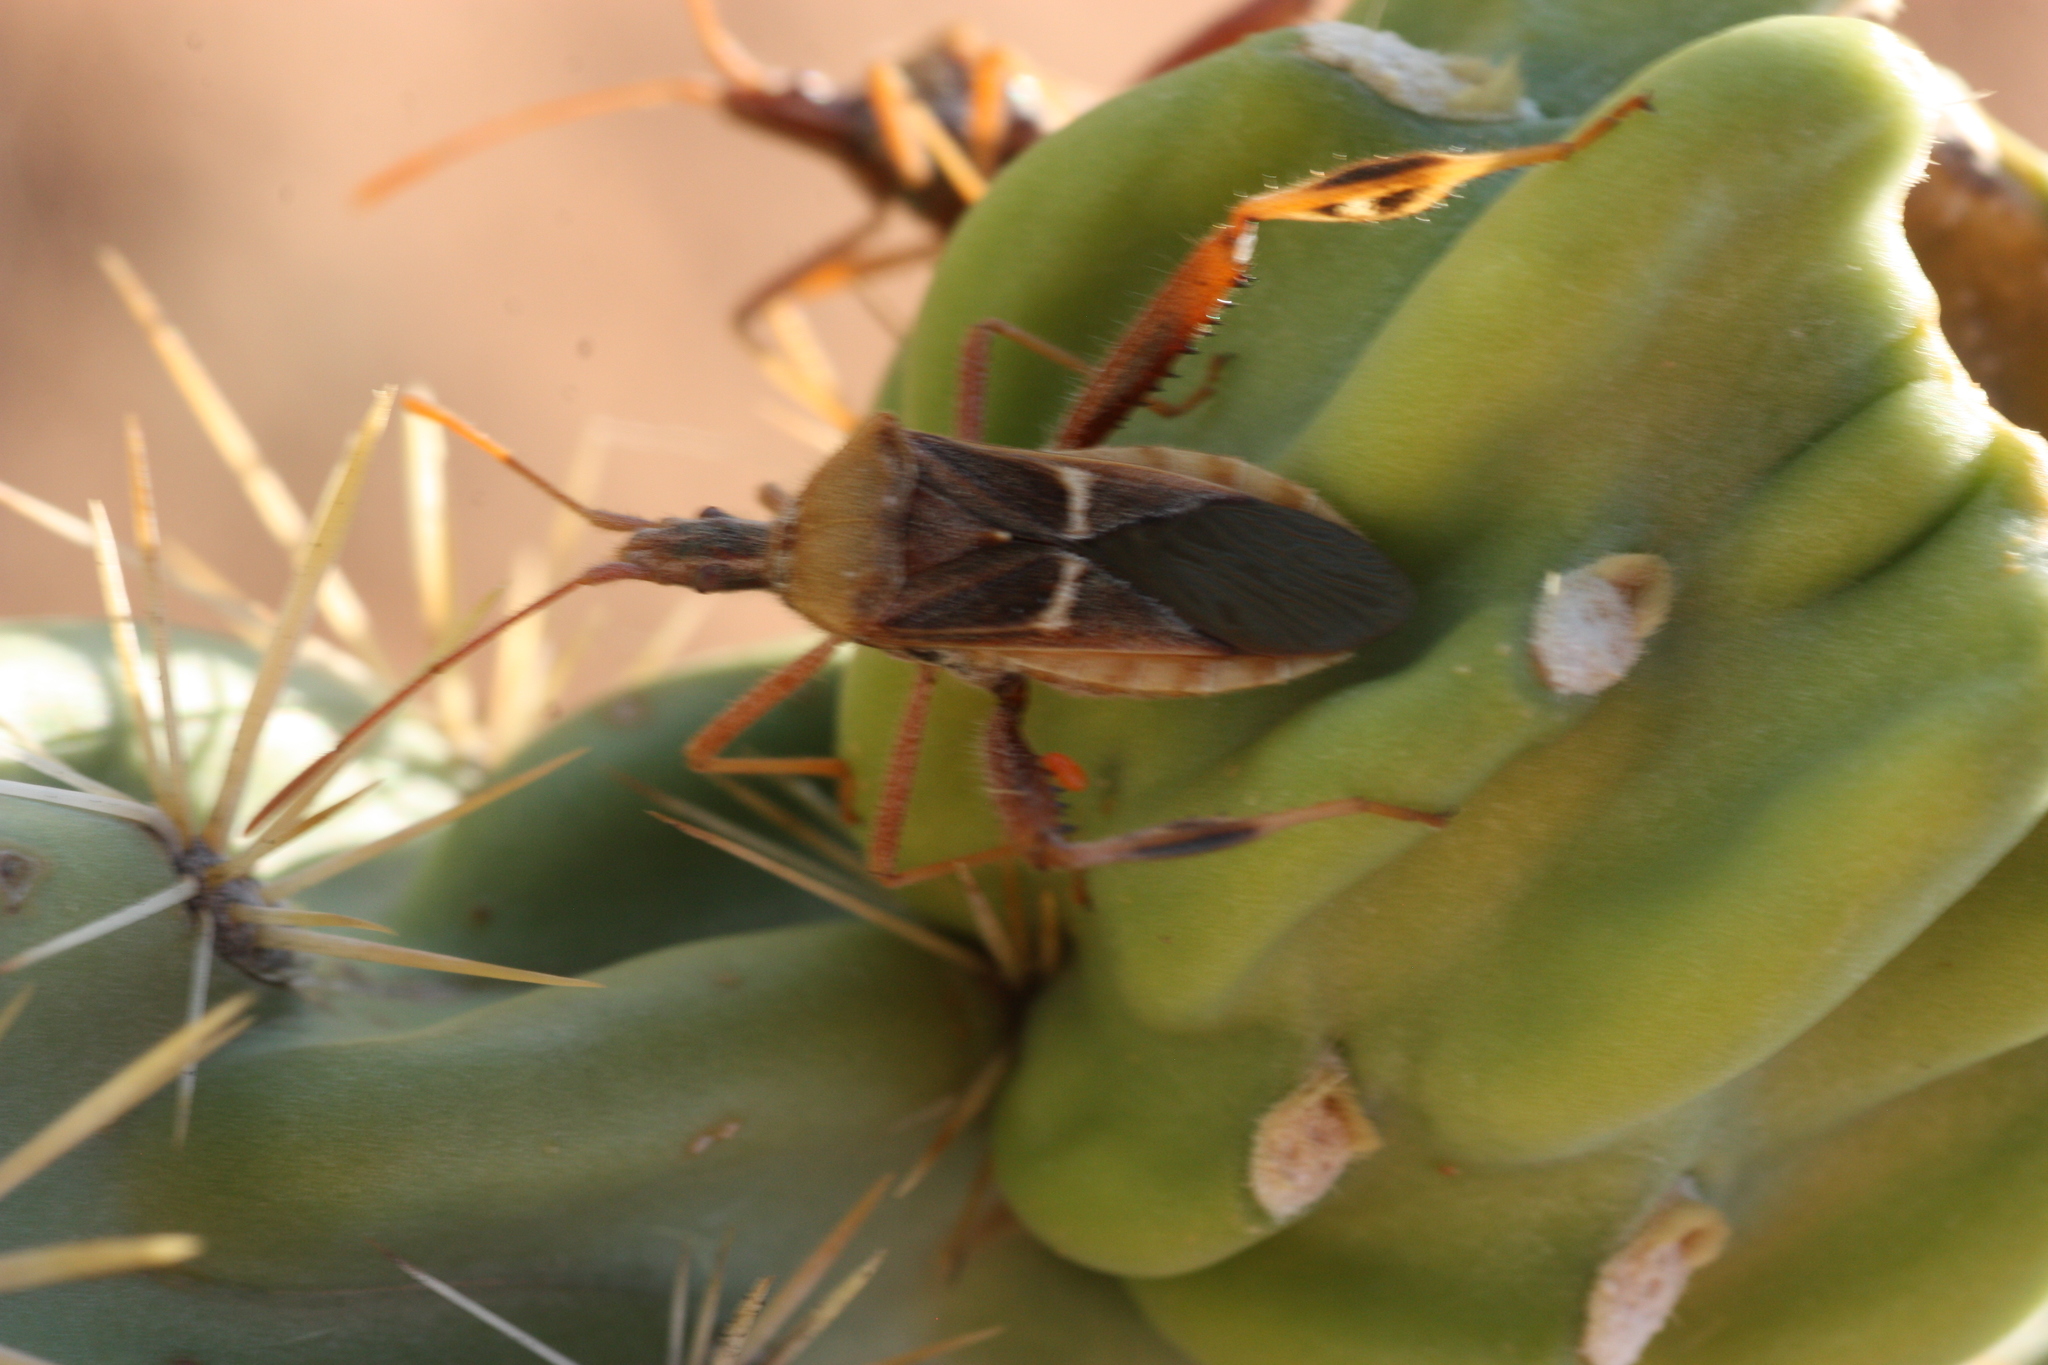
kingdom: Animalia
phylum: Arthropoda
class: Insecta
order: Hemiptera
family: Coreidae
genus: Narnia
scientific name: Narnia snowi
